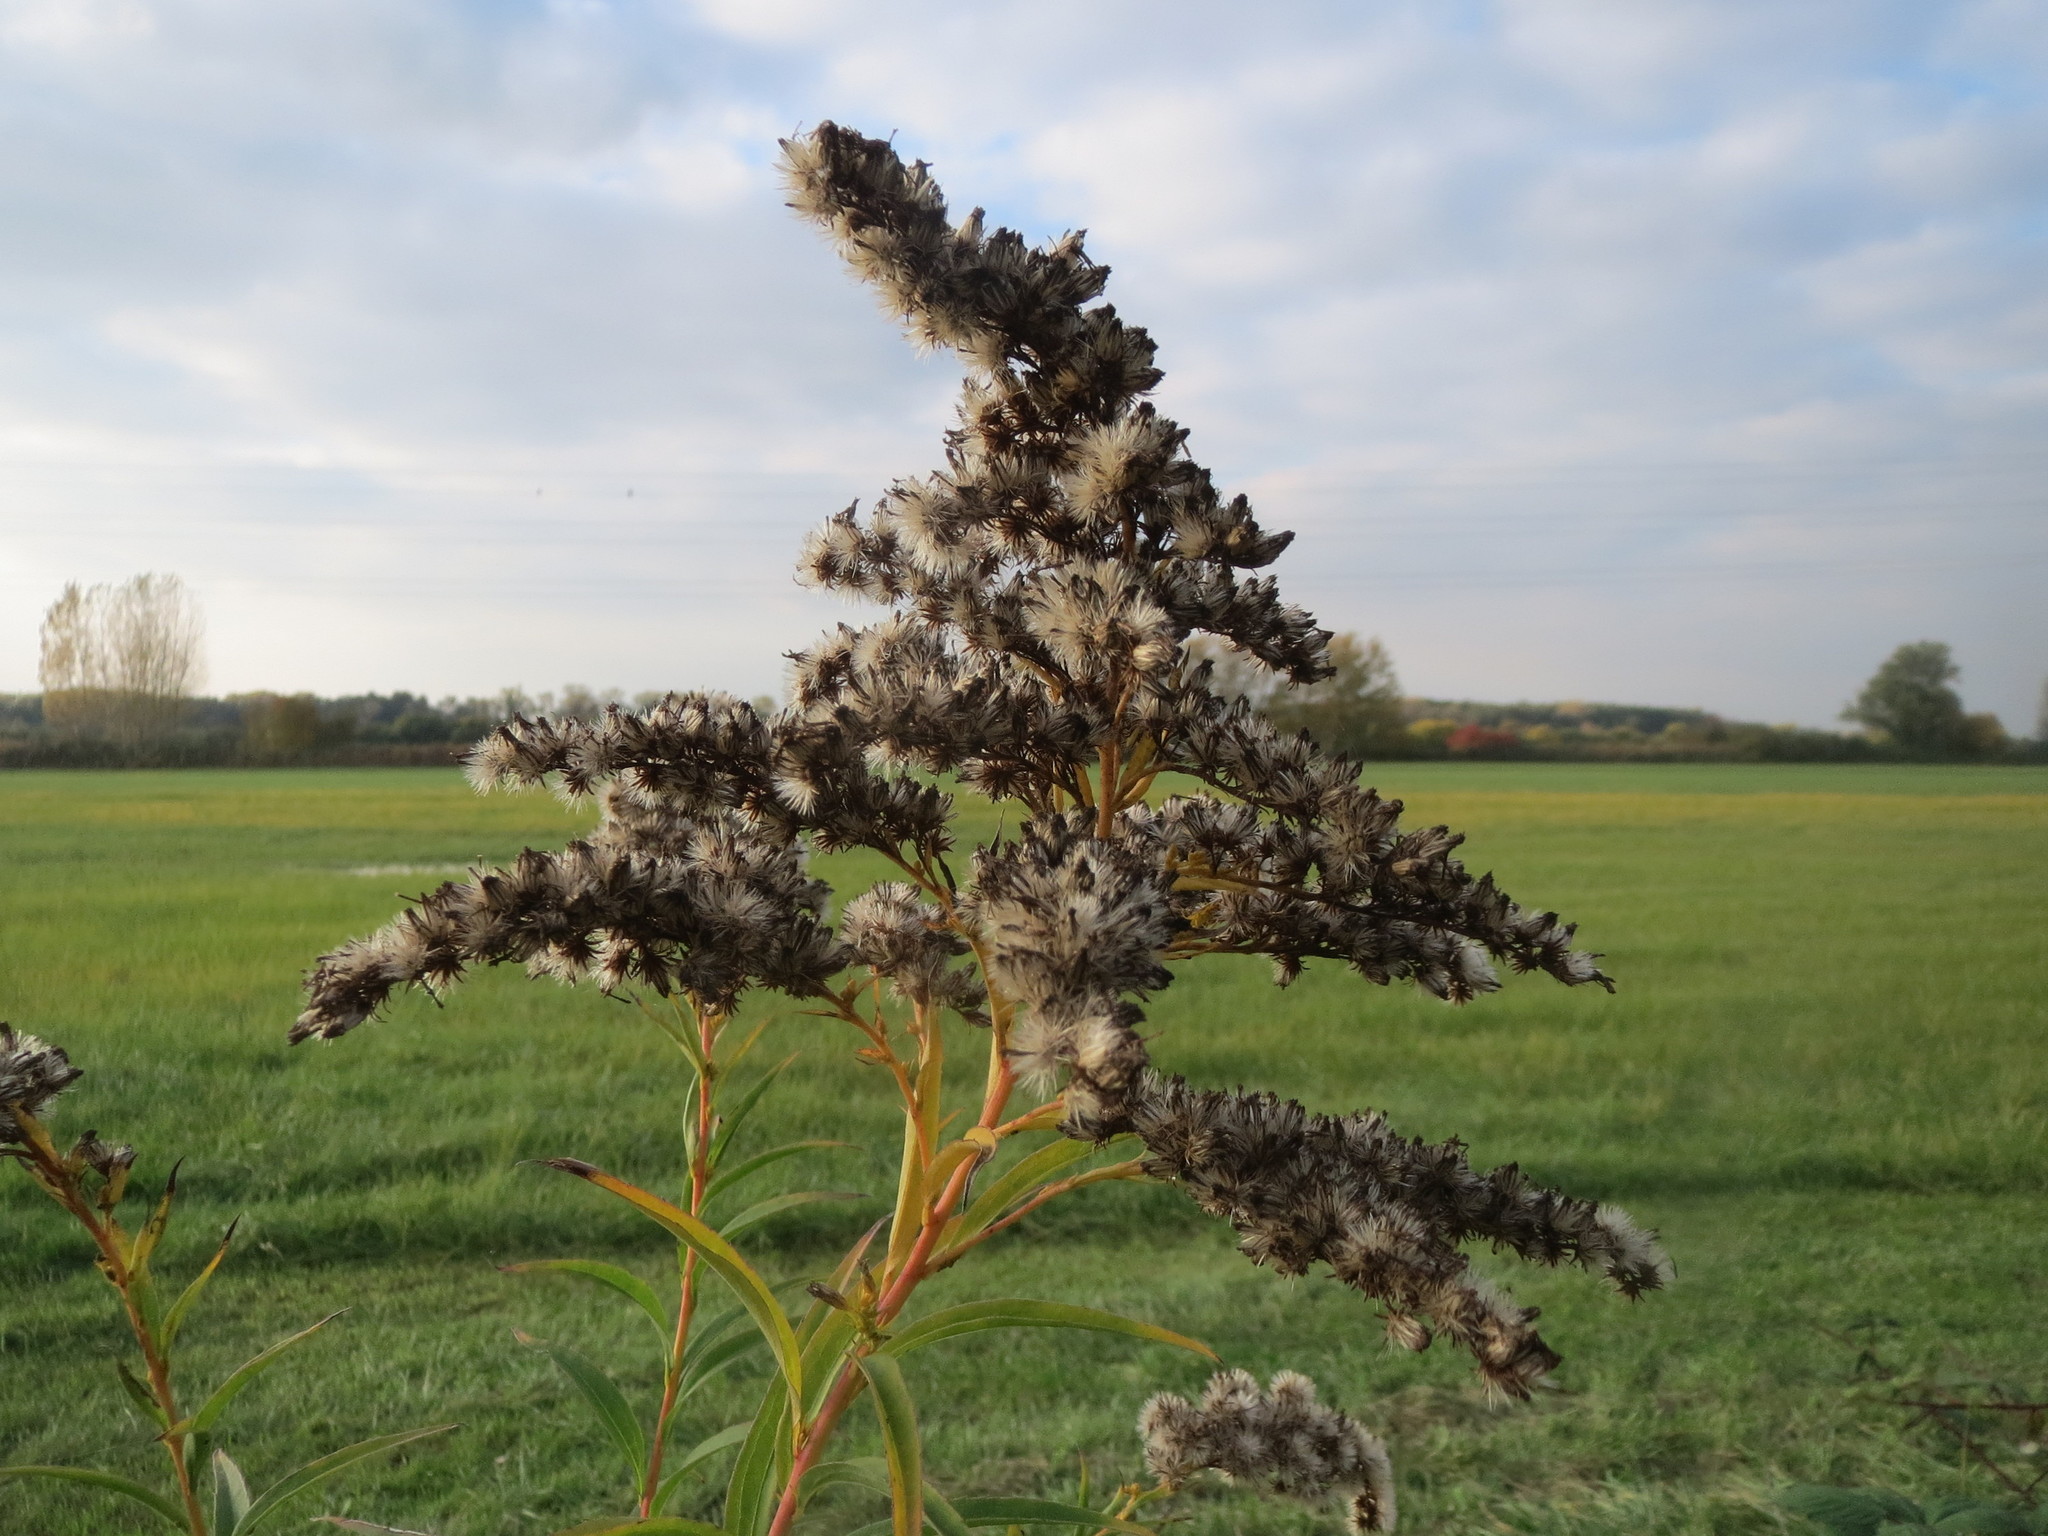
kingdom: Plantae
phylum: Tracheophyta
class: Magnoliopsida
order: Asterales
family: Asteraceae
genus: Solidago
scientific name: Solidago canadensis
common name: Canada goldenrod
